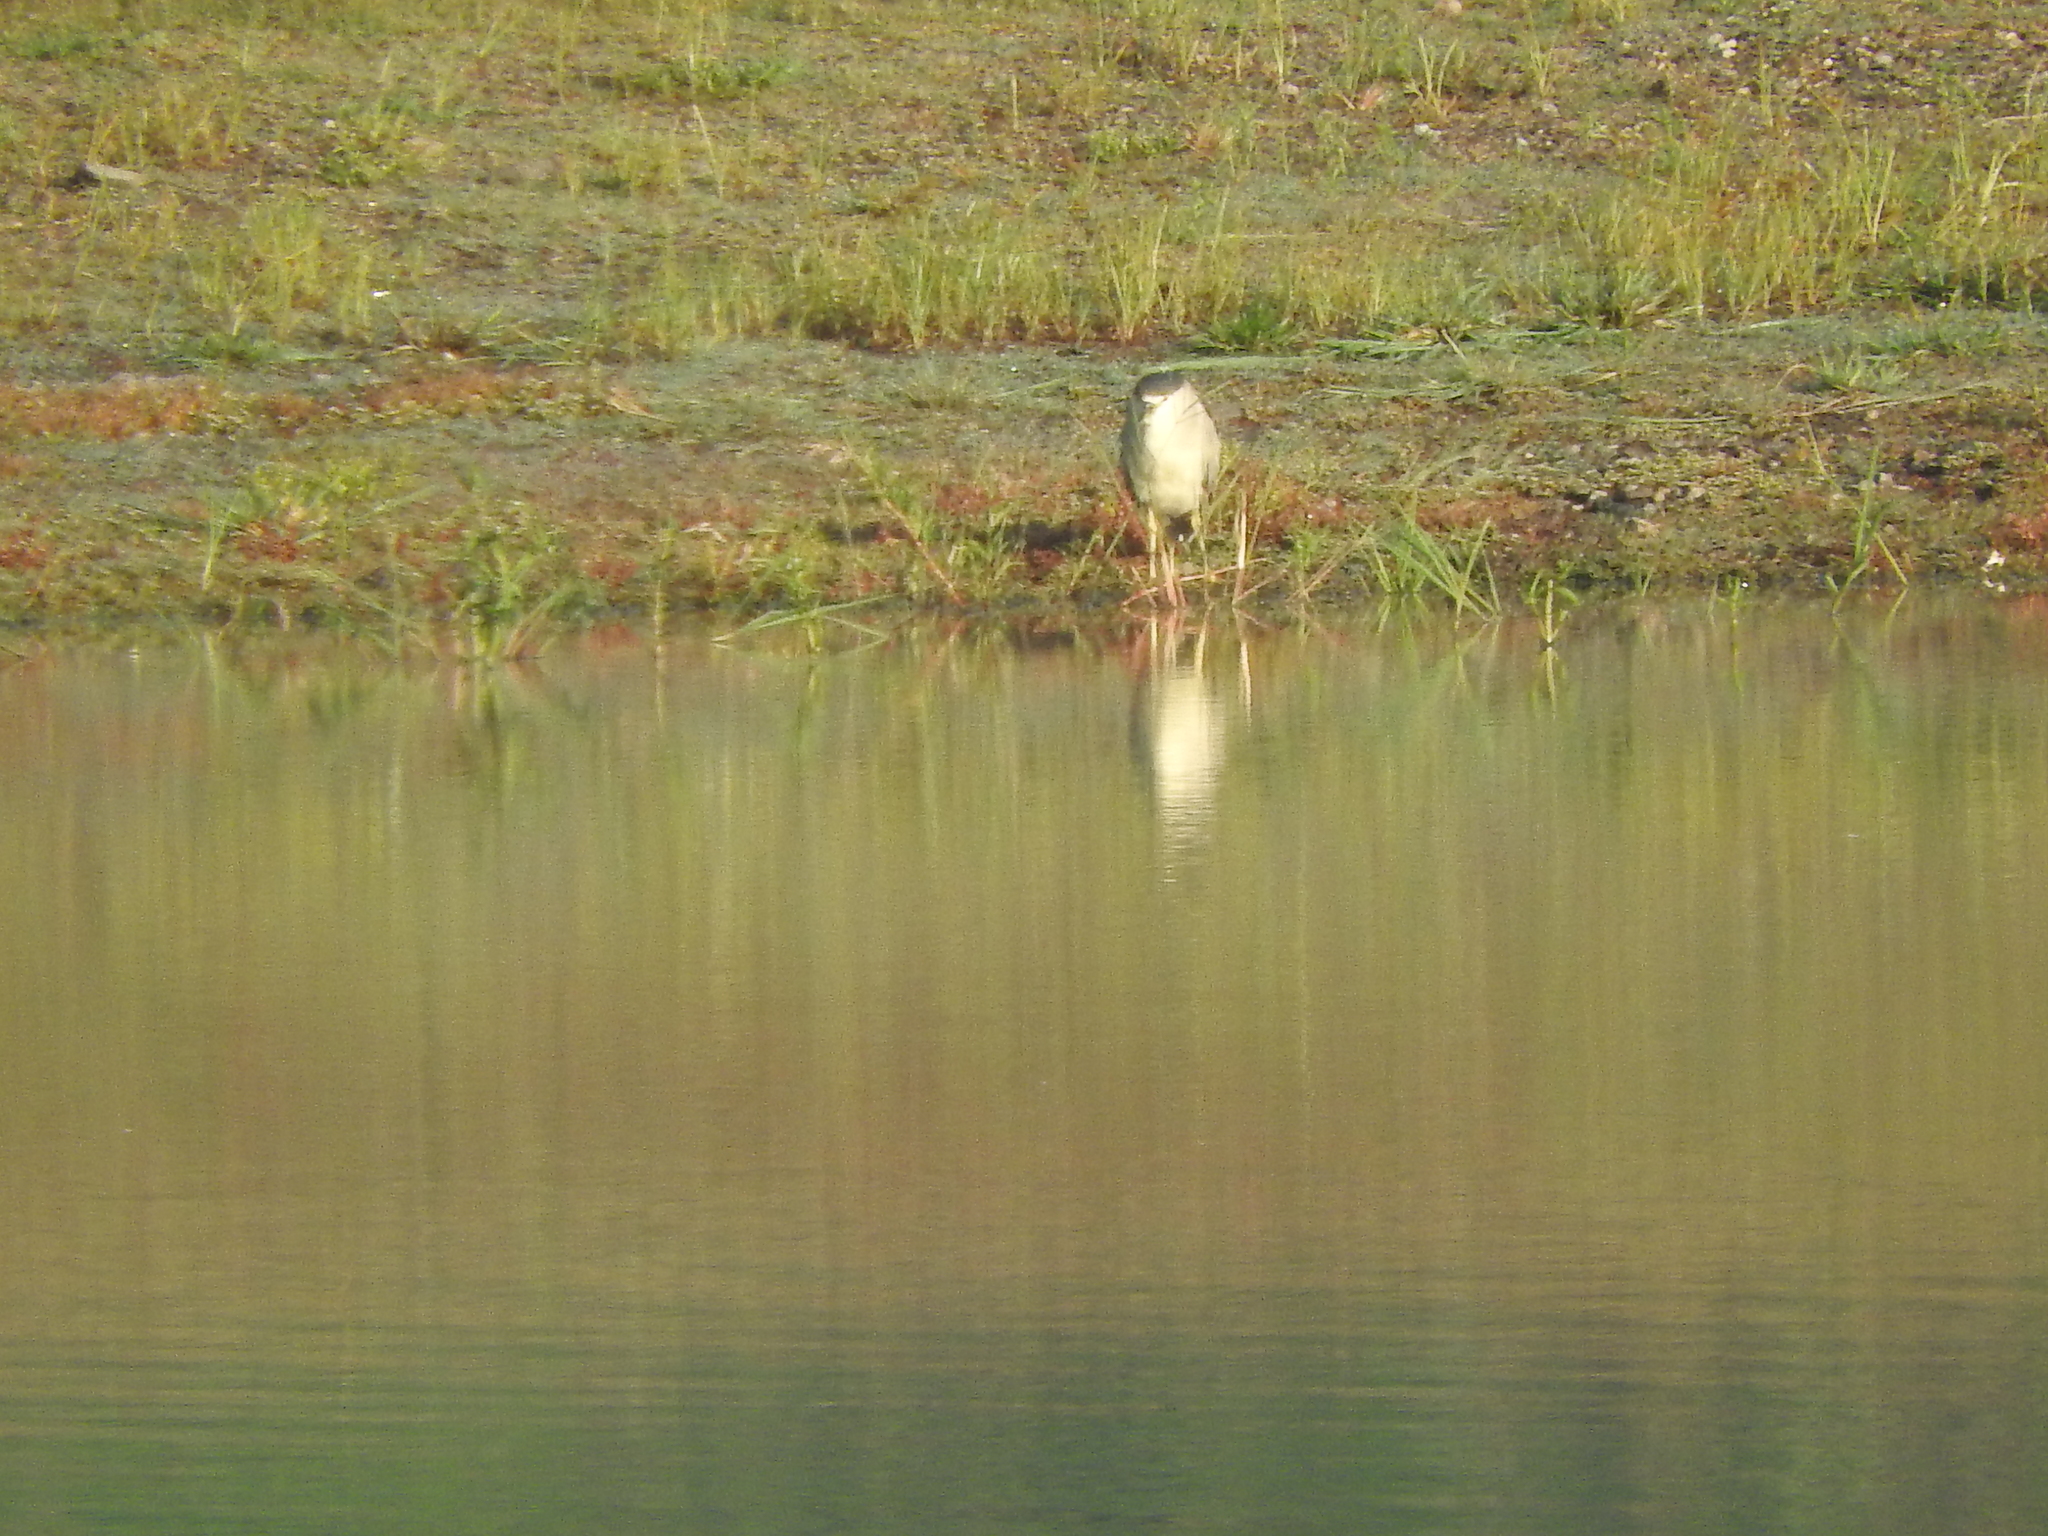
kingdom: Animalia
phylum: Chordata
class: Aves
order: Pelecaniformes
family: Ardeidae
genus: Nycticorax
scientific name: Nycticorax nycticorax
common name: Black-crowned night heron
